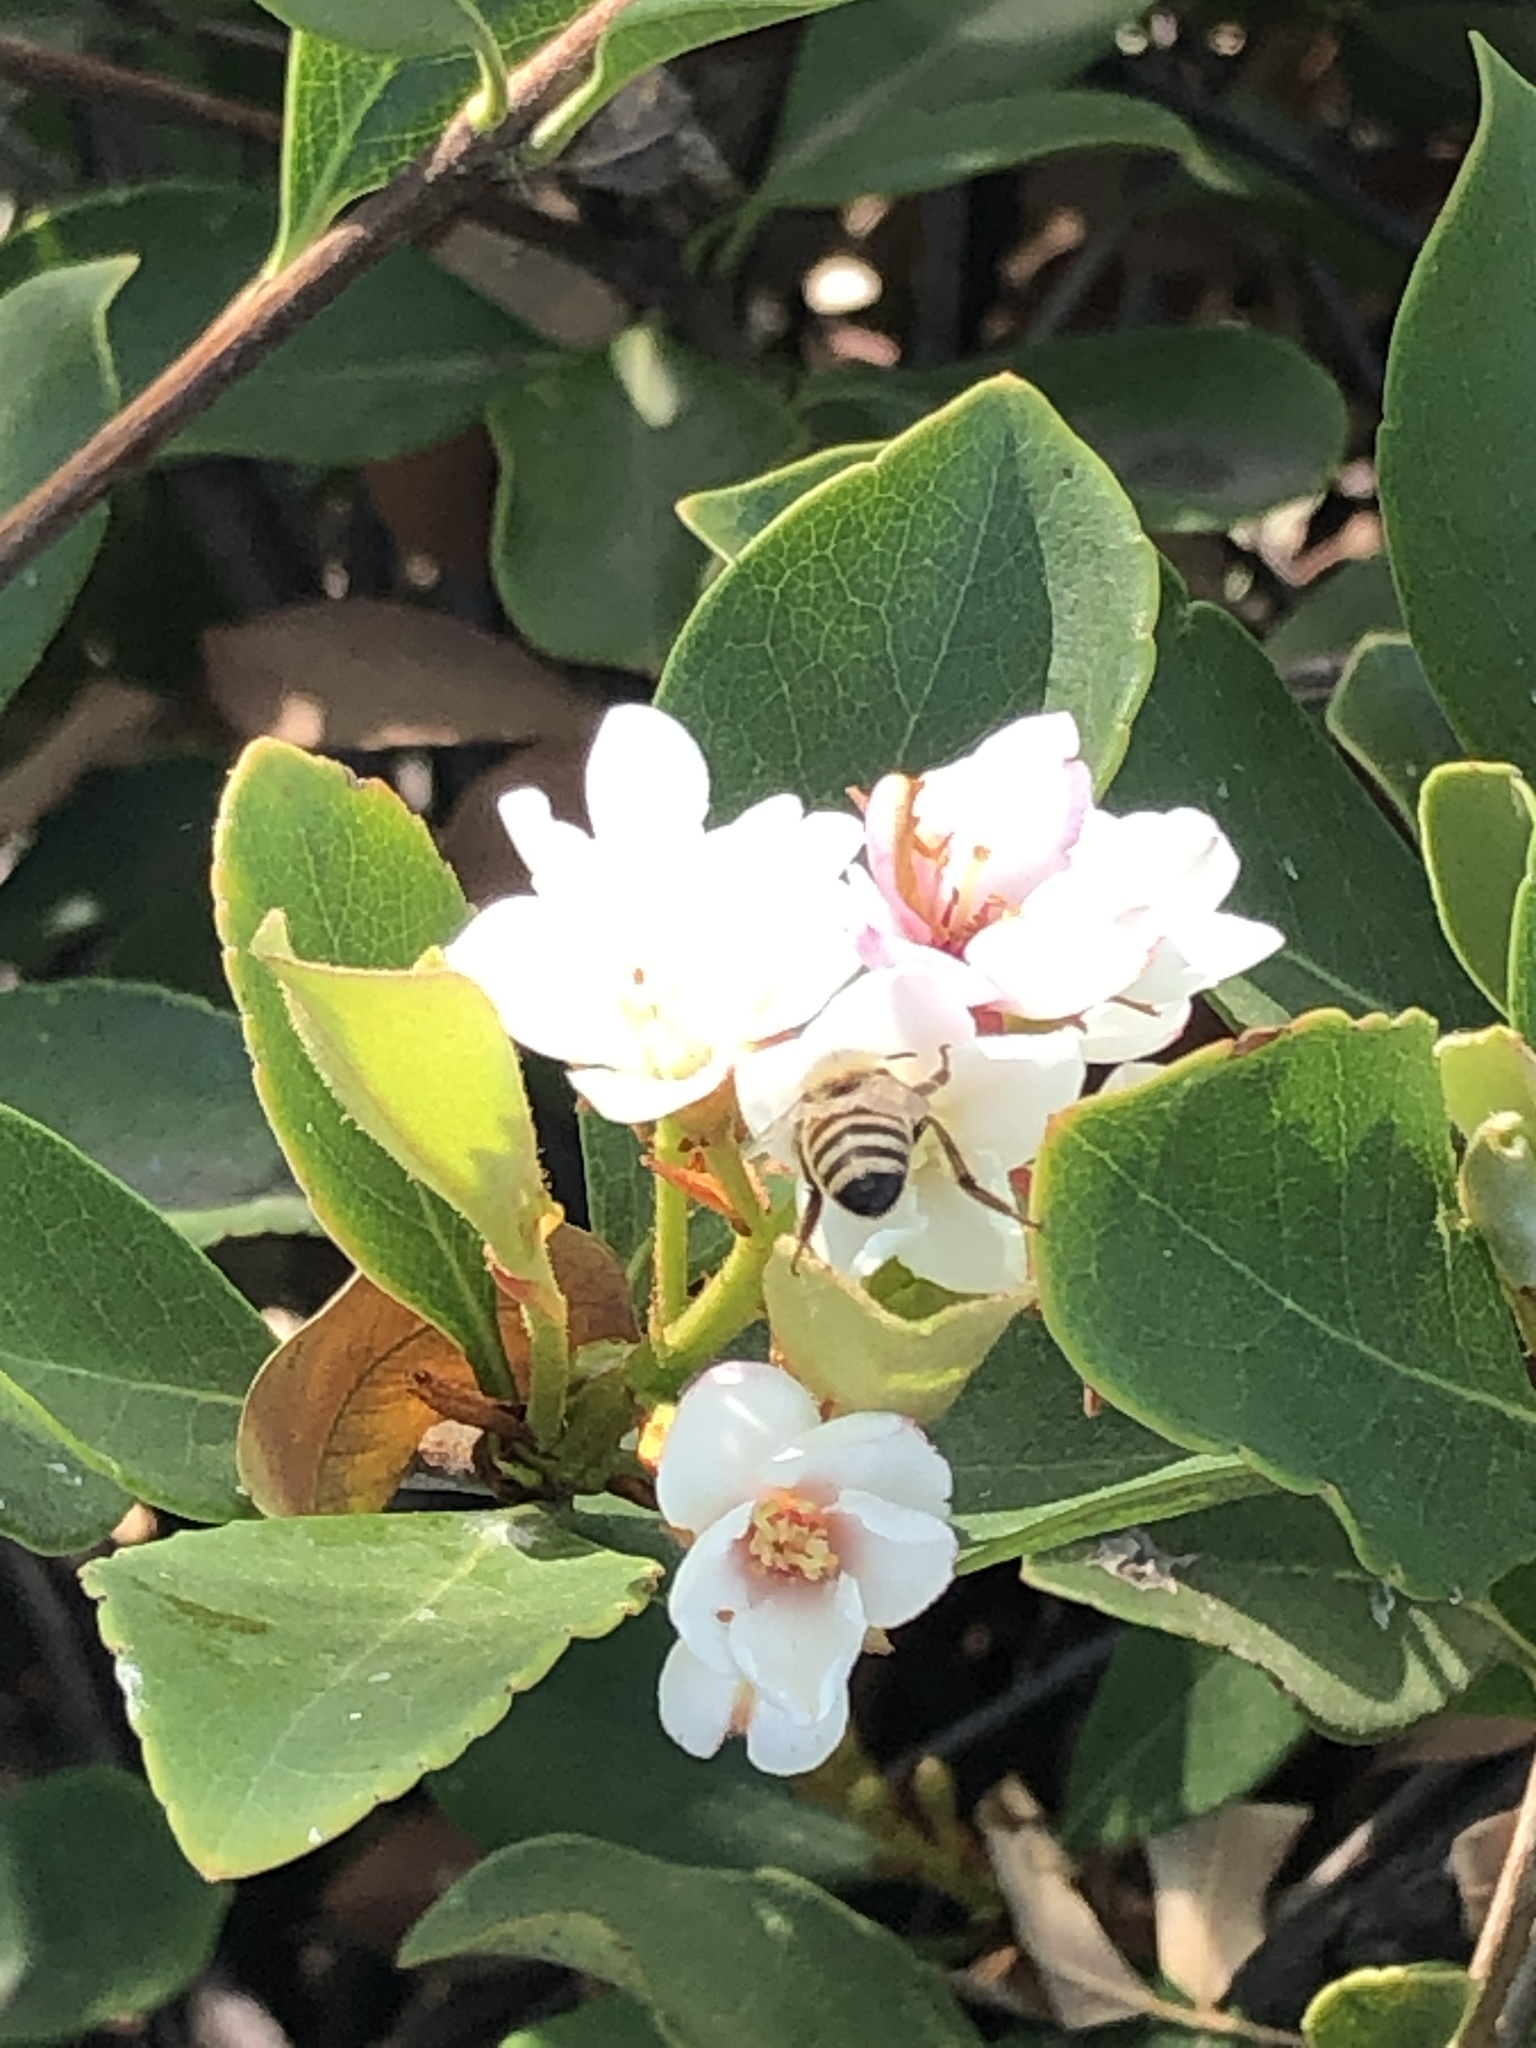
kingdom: Animalia
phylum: Arthropoda
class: Insecta
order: Hymenoptera
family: Apidae
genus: Apis
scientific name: Apis mellifera
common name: Honey bee
